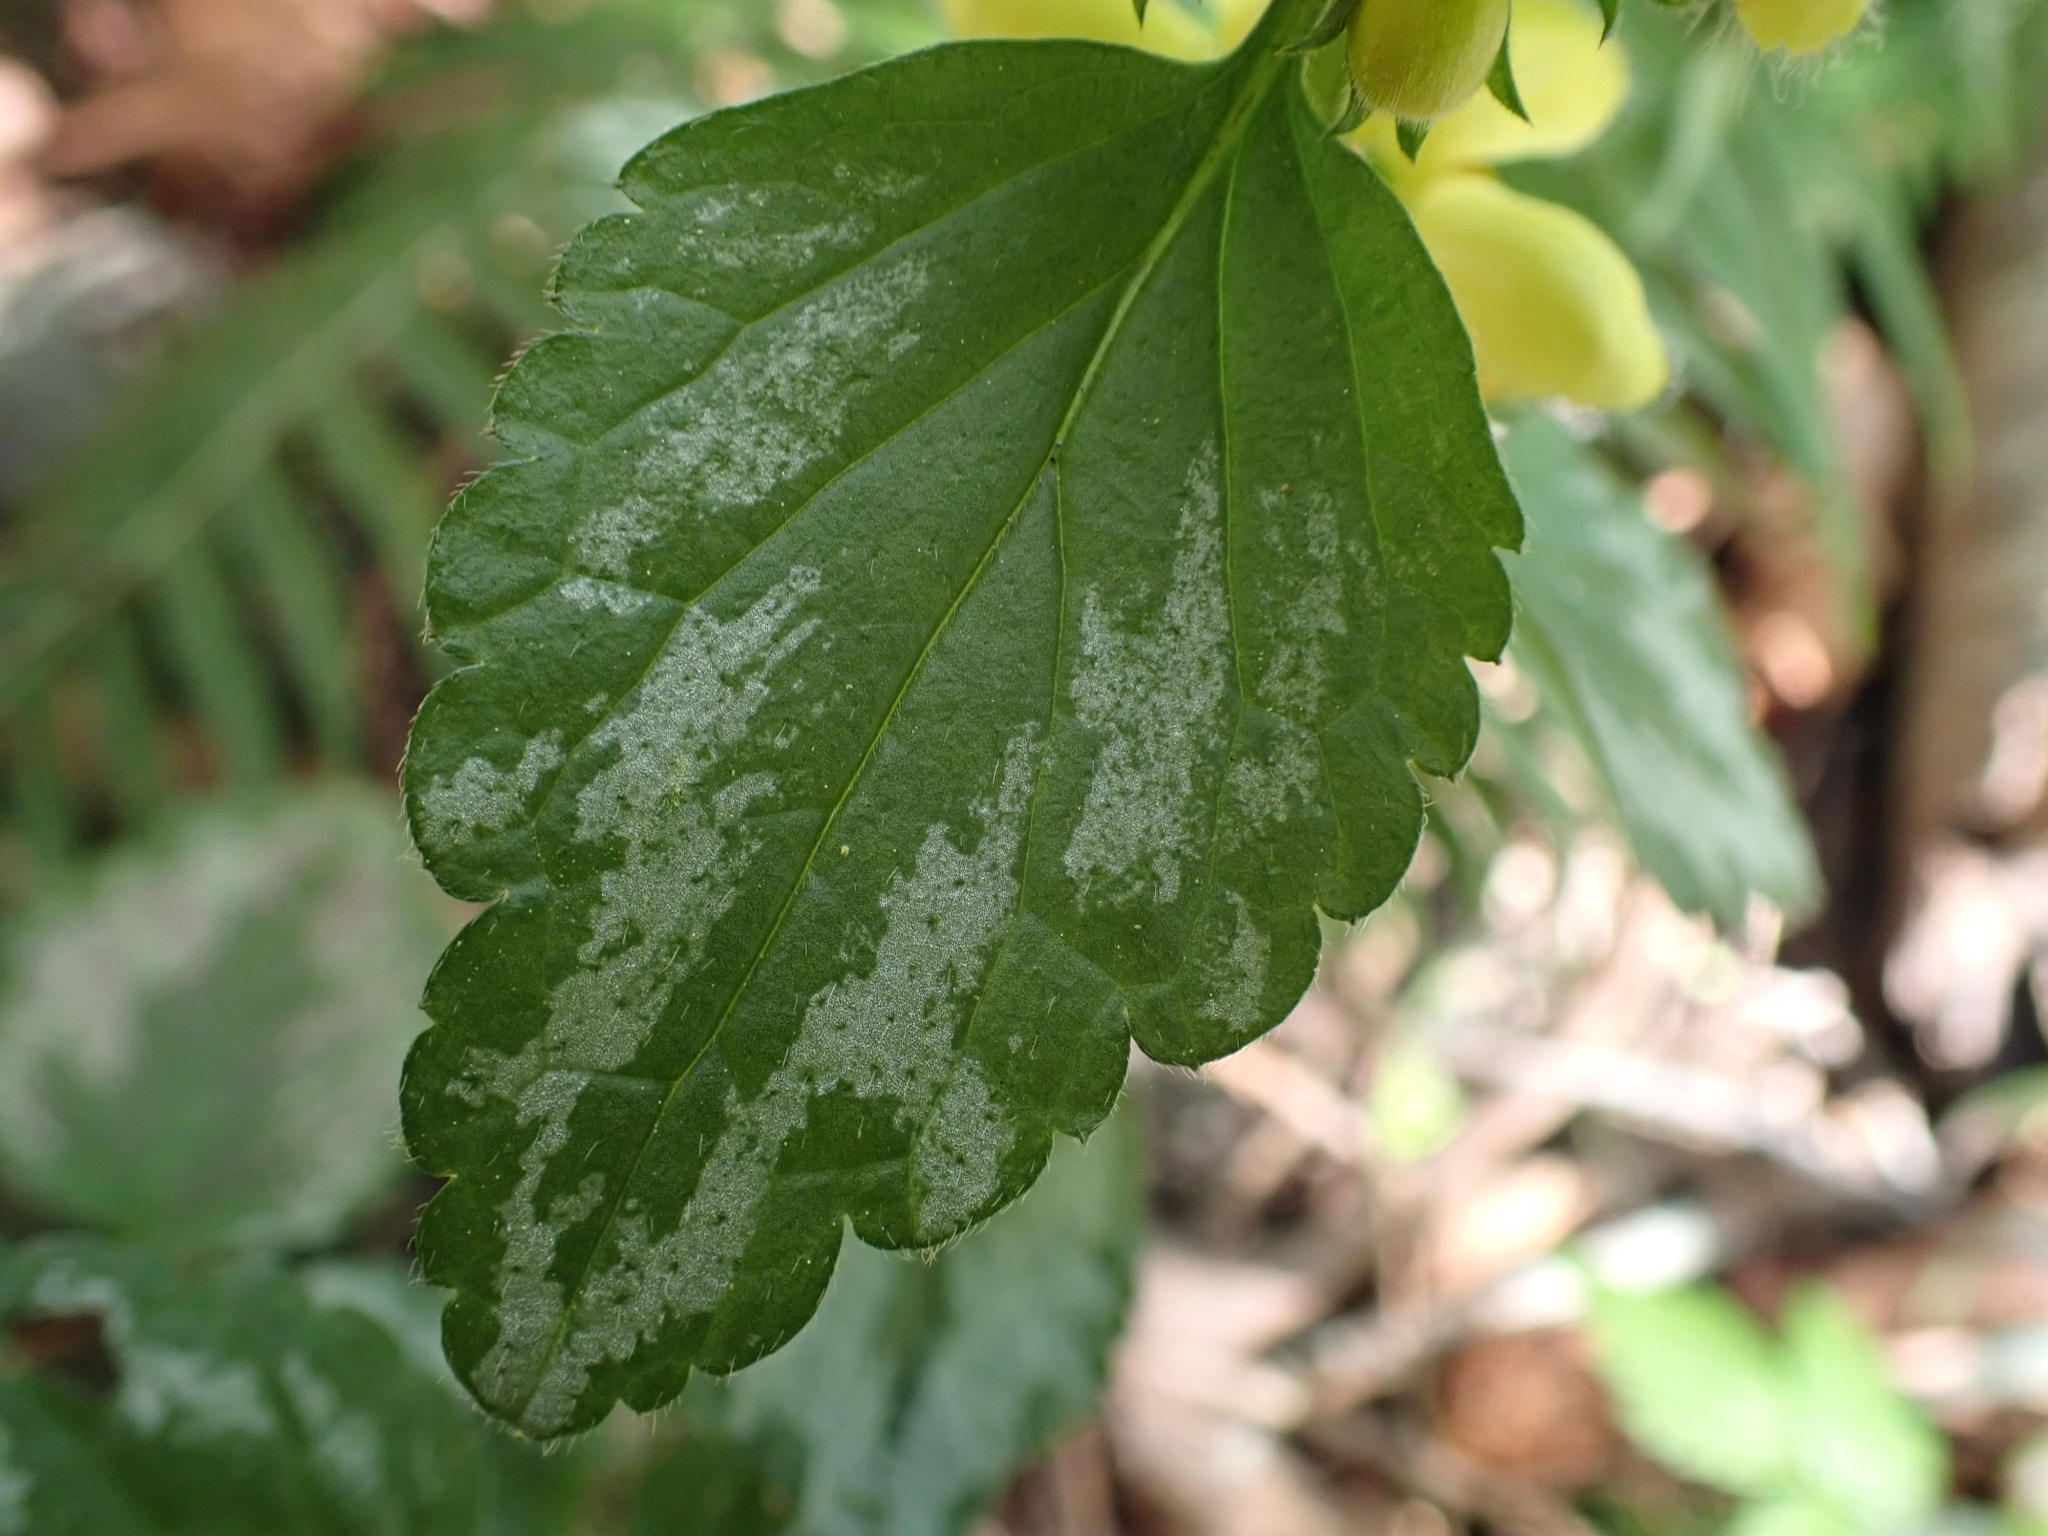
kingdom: Plantae
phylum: Tracheophyta
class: Magnoliopsida
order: Lamiales
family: Lamiaceae
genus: Lamium
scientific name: Lamium galeobdolon
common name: Yellow archangel
